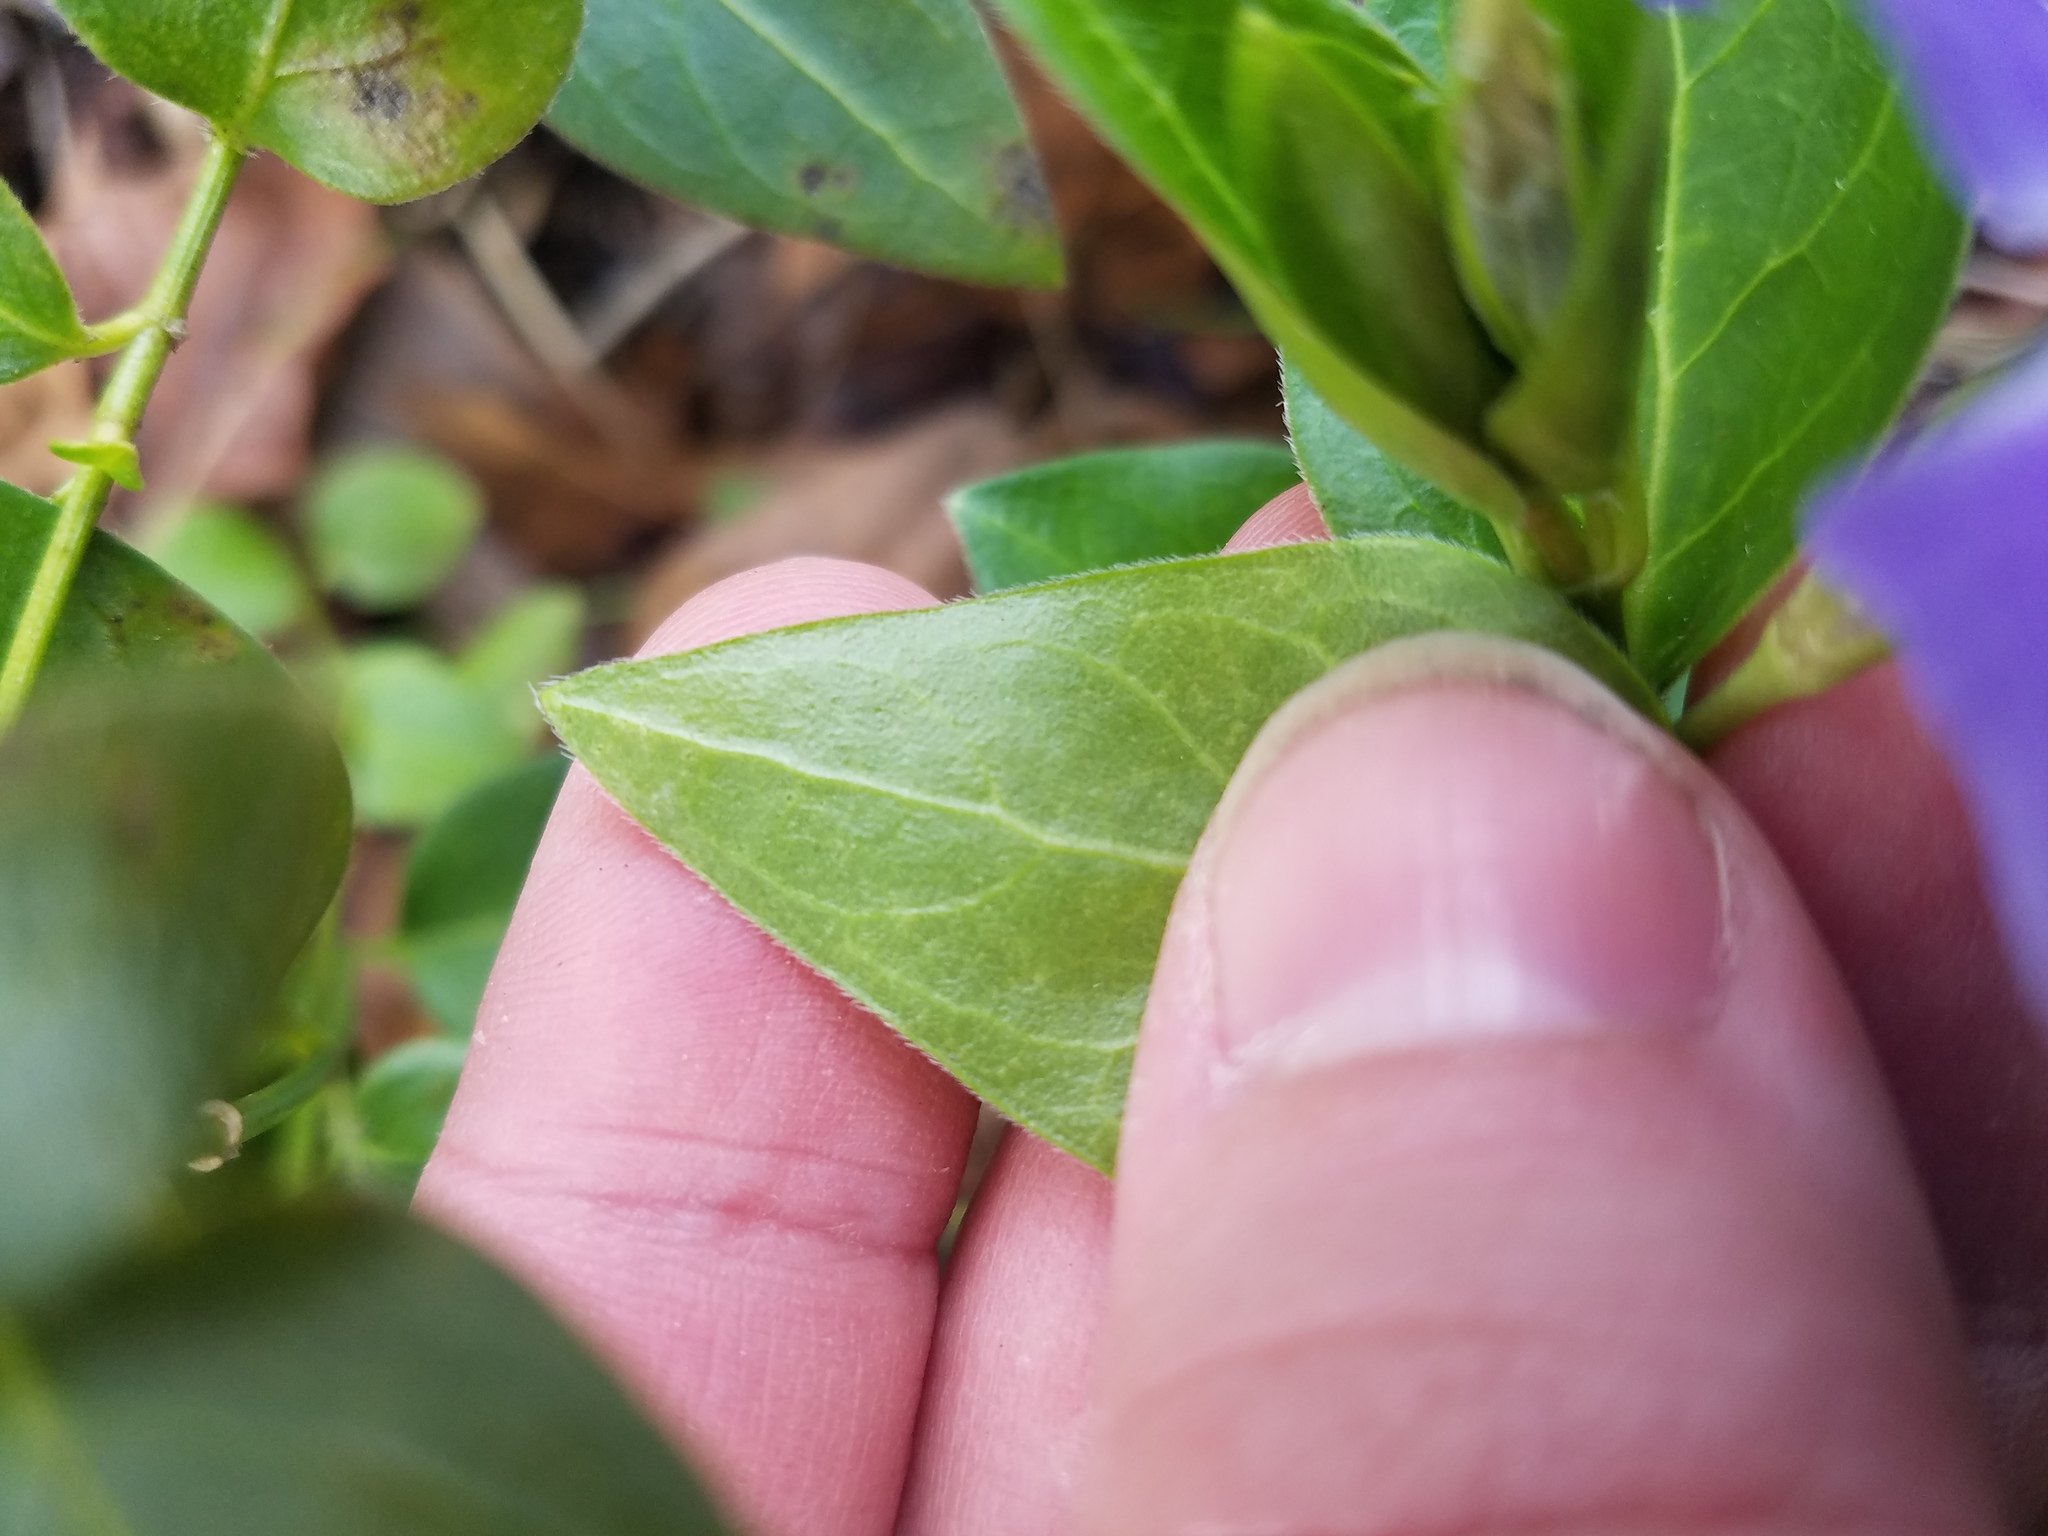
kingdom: Plantae
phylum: Tracheophyta
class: Magnoliopsida
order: Gentianales
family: Apocynaceae
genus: Vinca
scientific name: Vinca major
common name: Greater periwinkle
